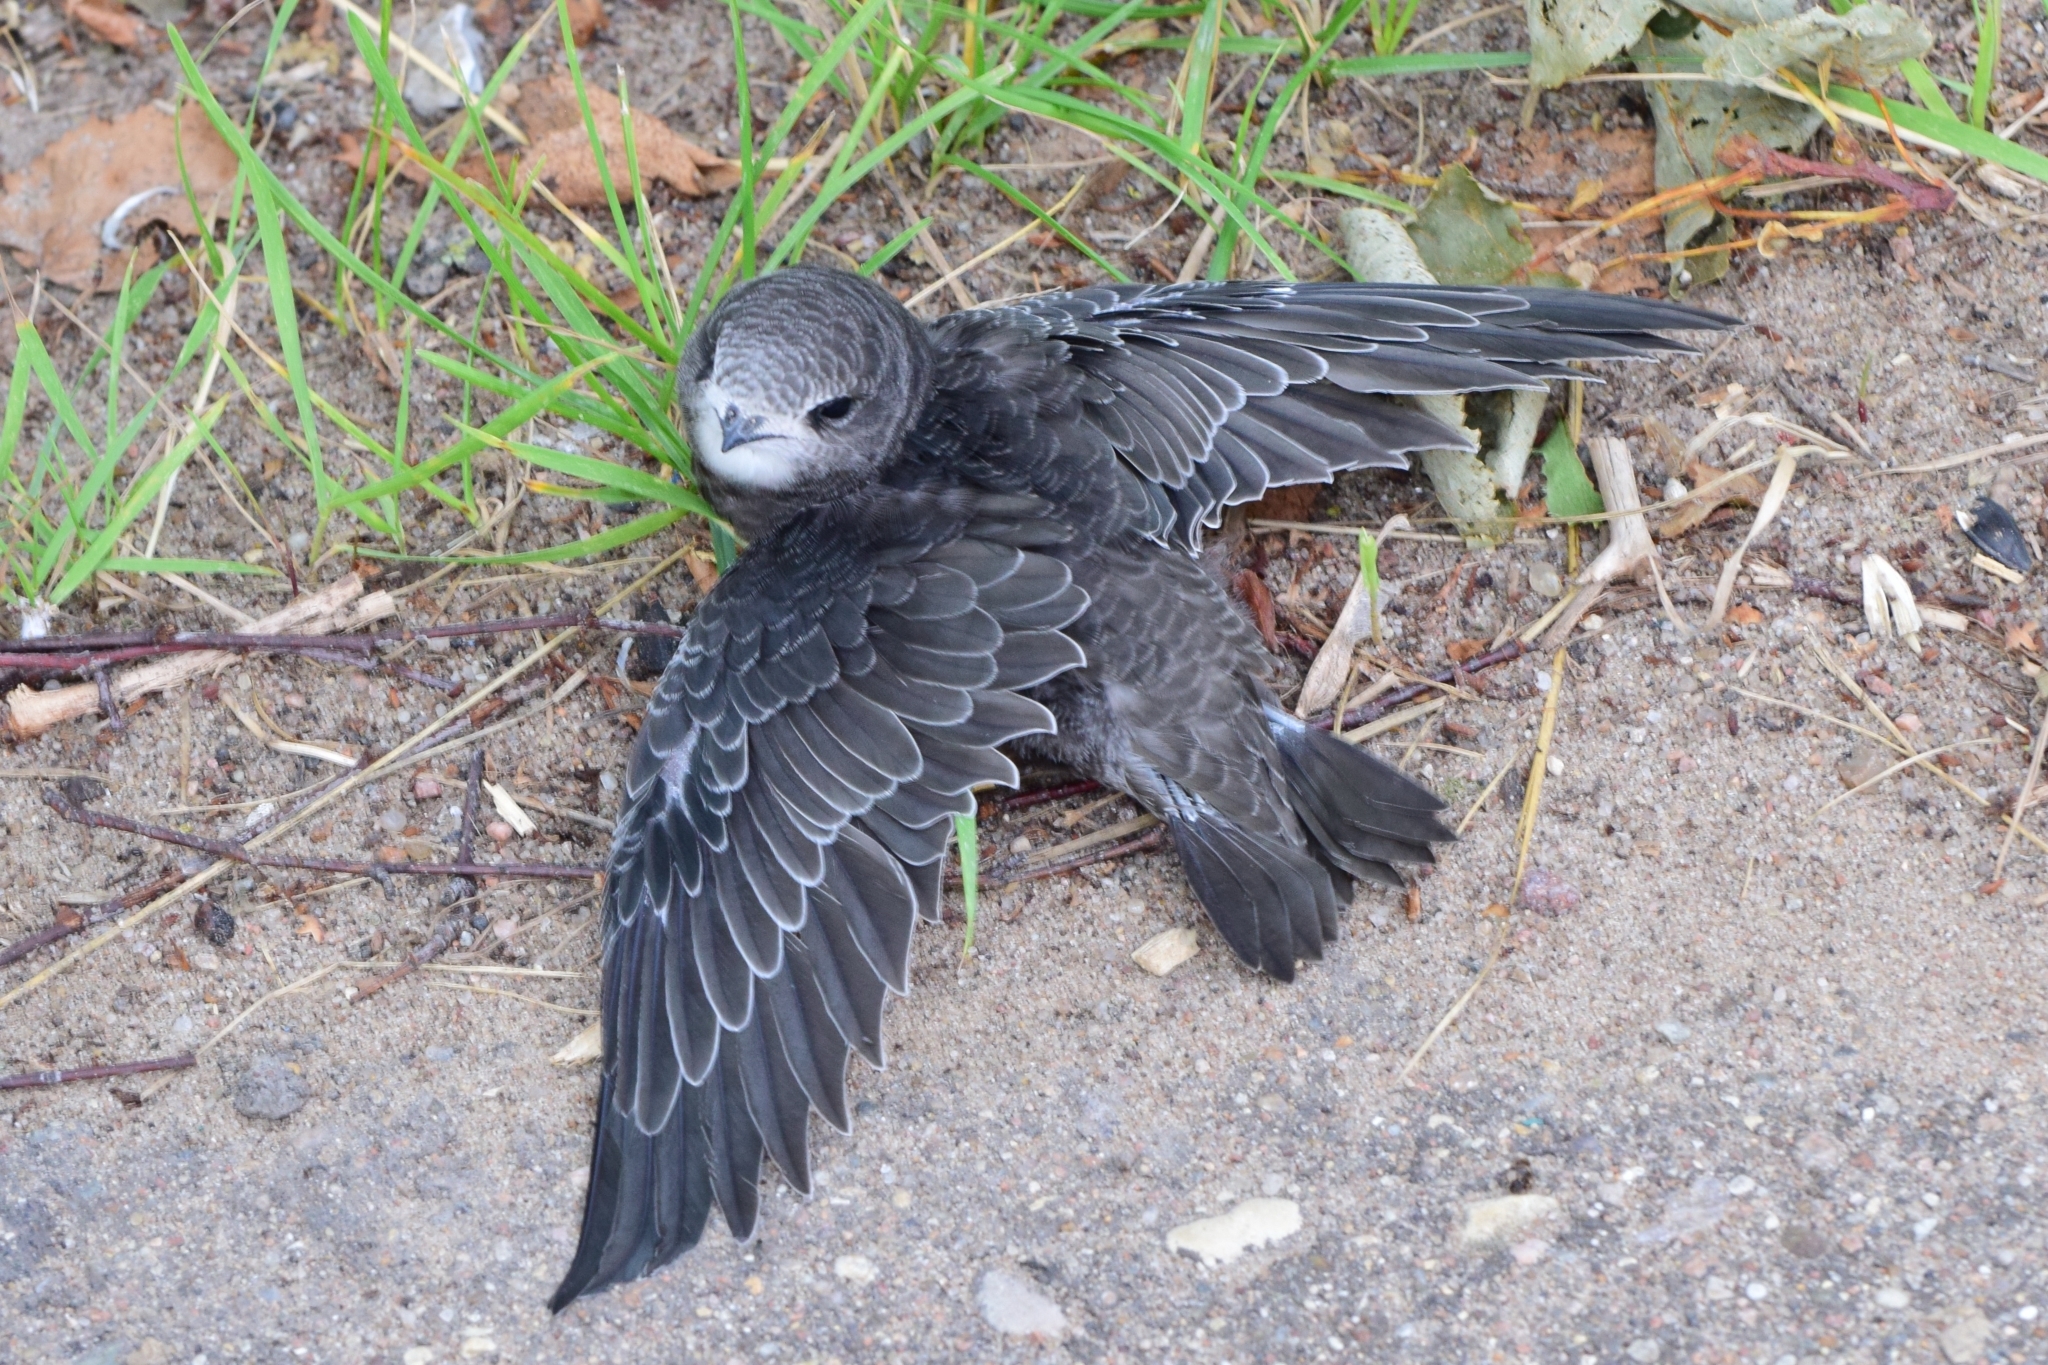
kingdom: Animalia
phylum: Chordata
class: Aves
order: Apodiformes
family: Apodidae
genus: Apus
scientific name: Apus apus
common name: Common swift
